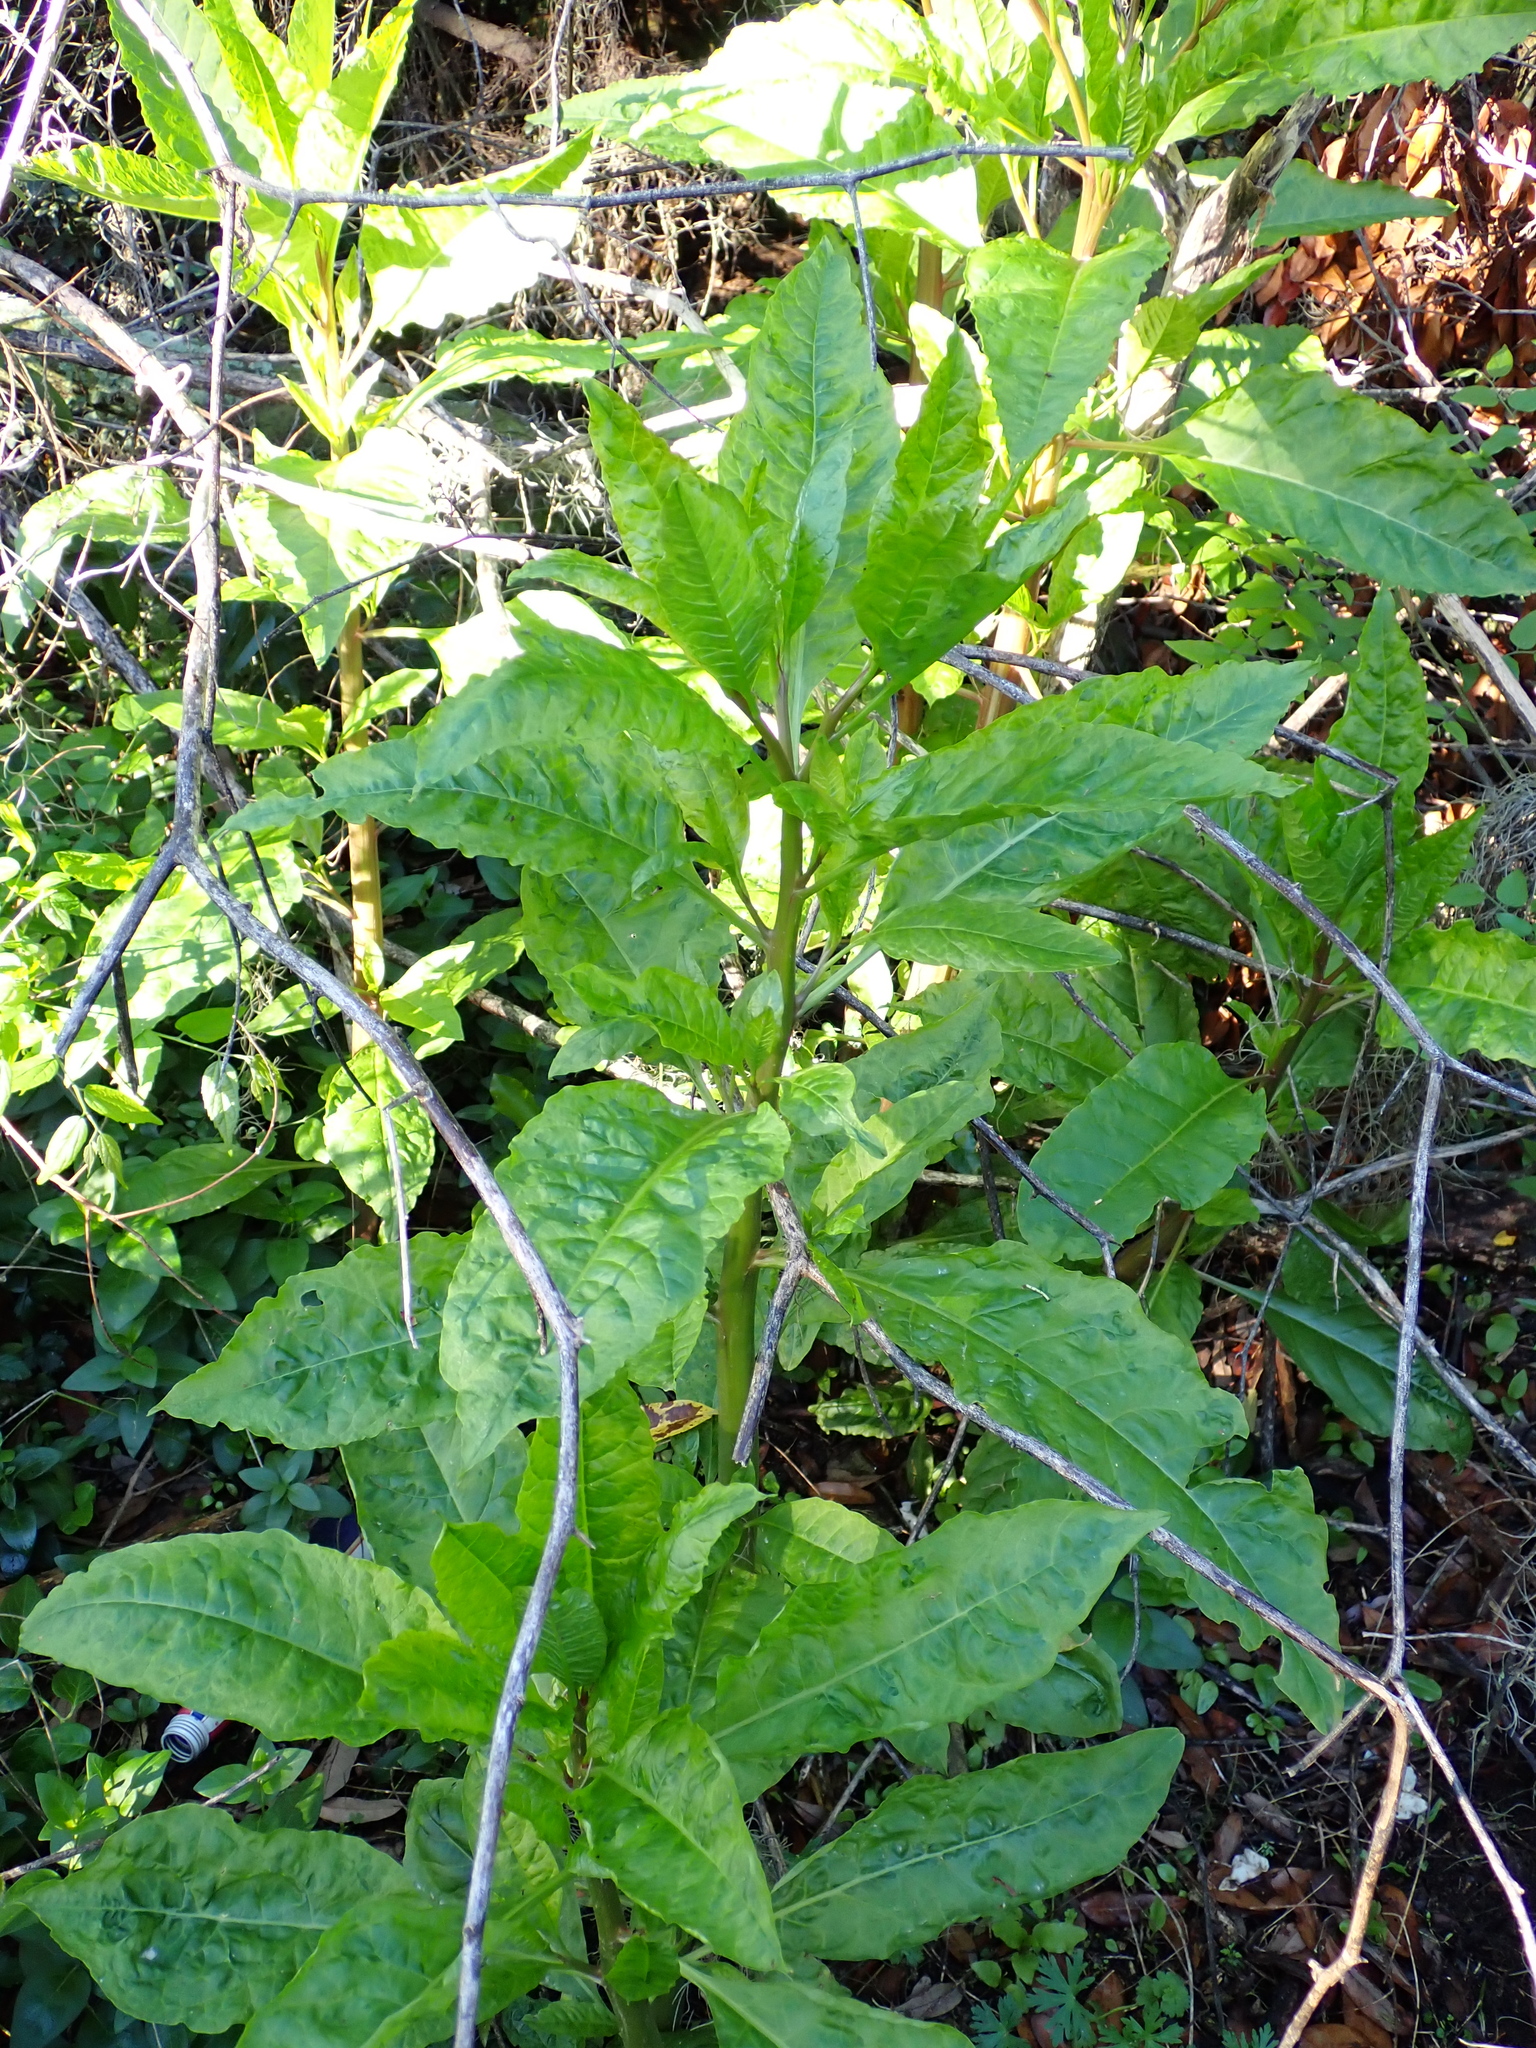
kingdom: Plantae
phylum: Tracheophyta
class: Magnoliopsida
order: Caryophyllales
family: Phytolaccaceae
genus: Phytolacca
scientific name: Phytolacca americana
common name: American pokeweed
